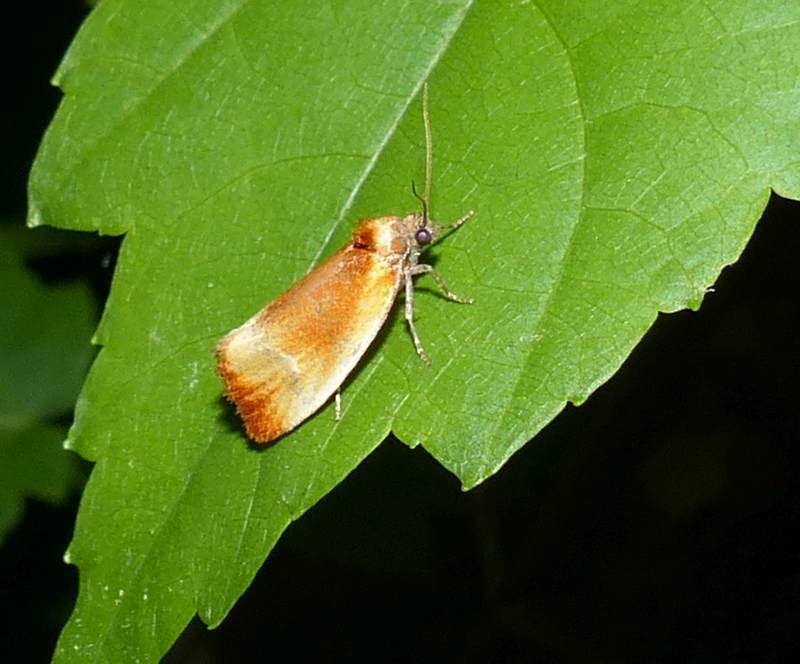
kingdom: Animalia
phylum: Arthropoda
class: Insecta
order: Lepidoptera
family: Tortricidae
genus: Eulia
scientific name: Eulia ministrana
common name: Brassy twist
